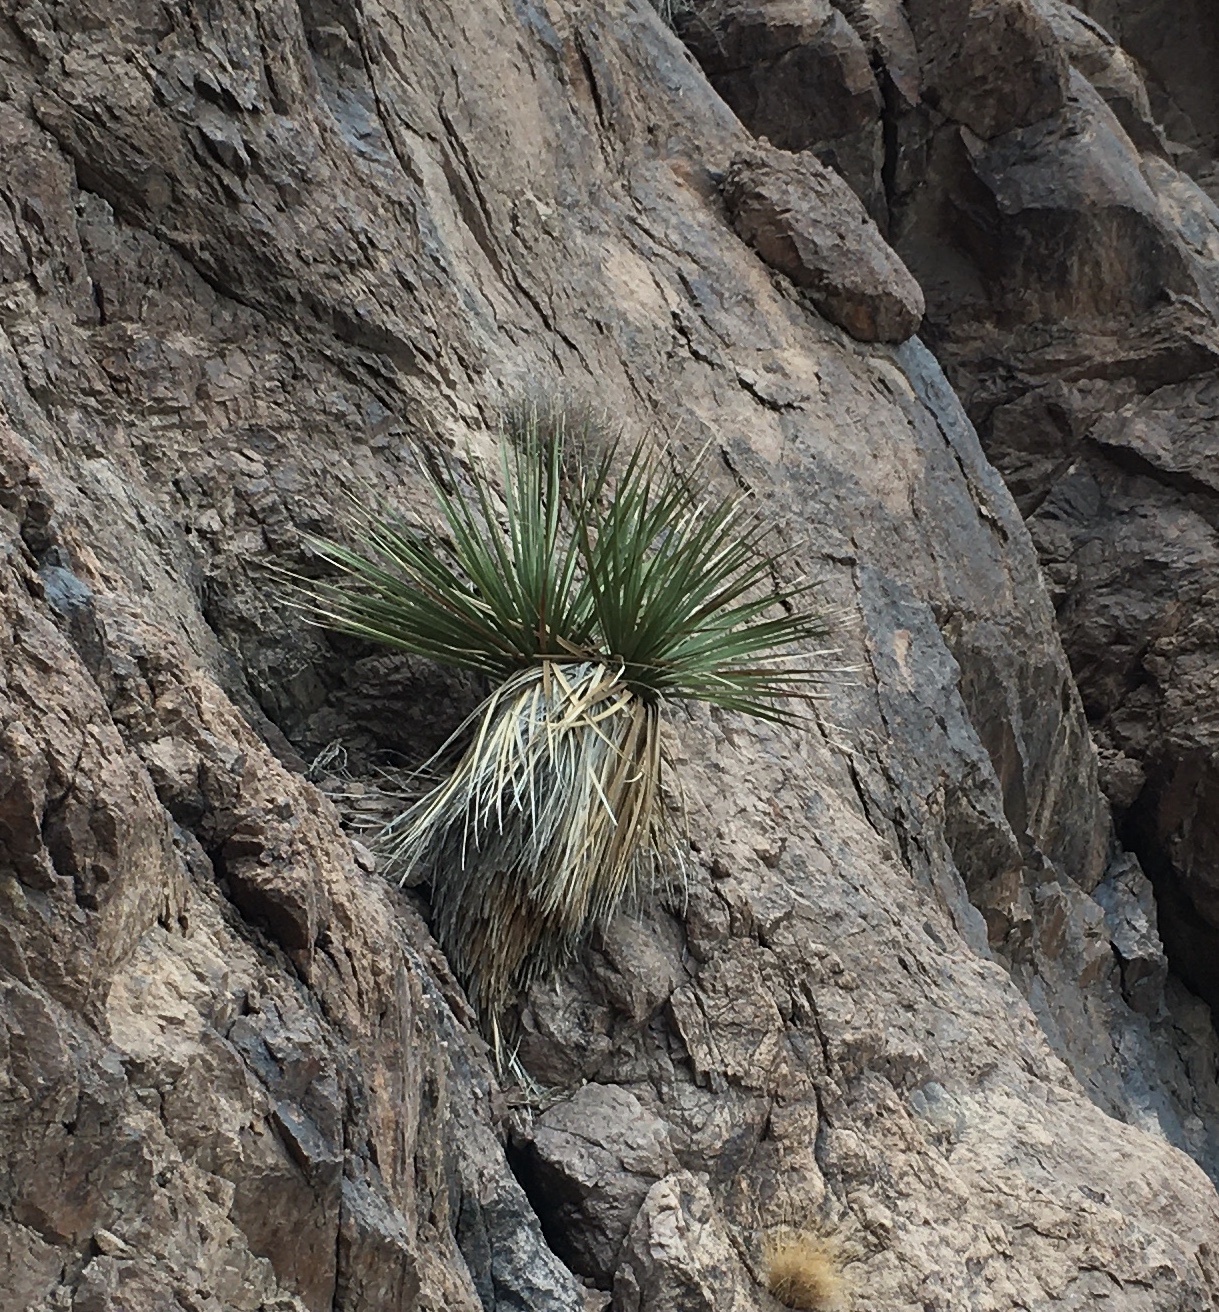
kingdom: Plantae
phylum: Tracheophyta
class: Liliopsida
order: Asparagales
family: Asparagaceae
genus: Nolina
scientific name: Nolina bigelovii
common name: Bigelow bear-grass
